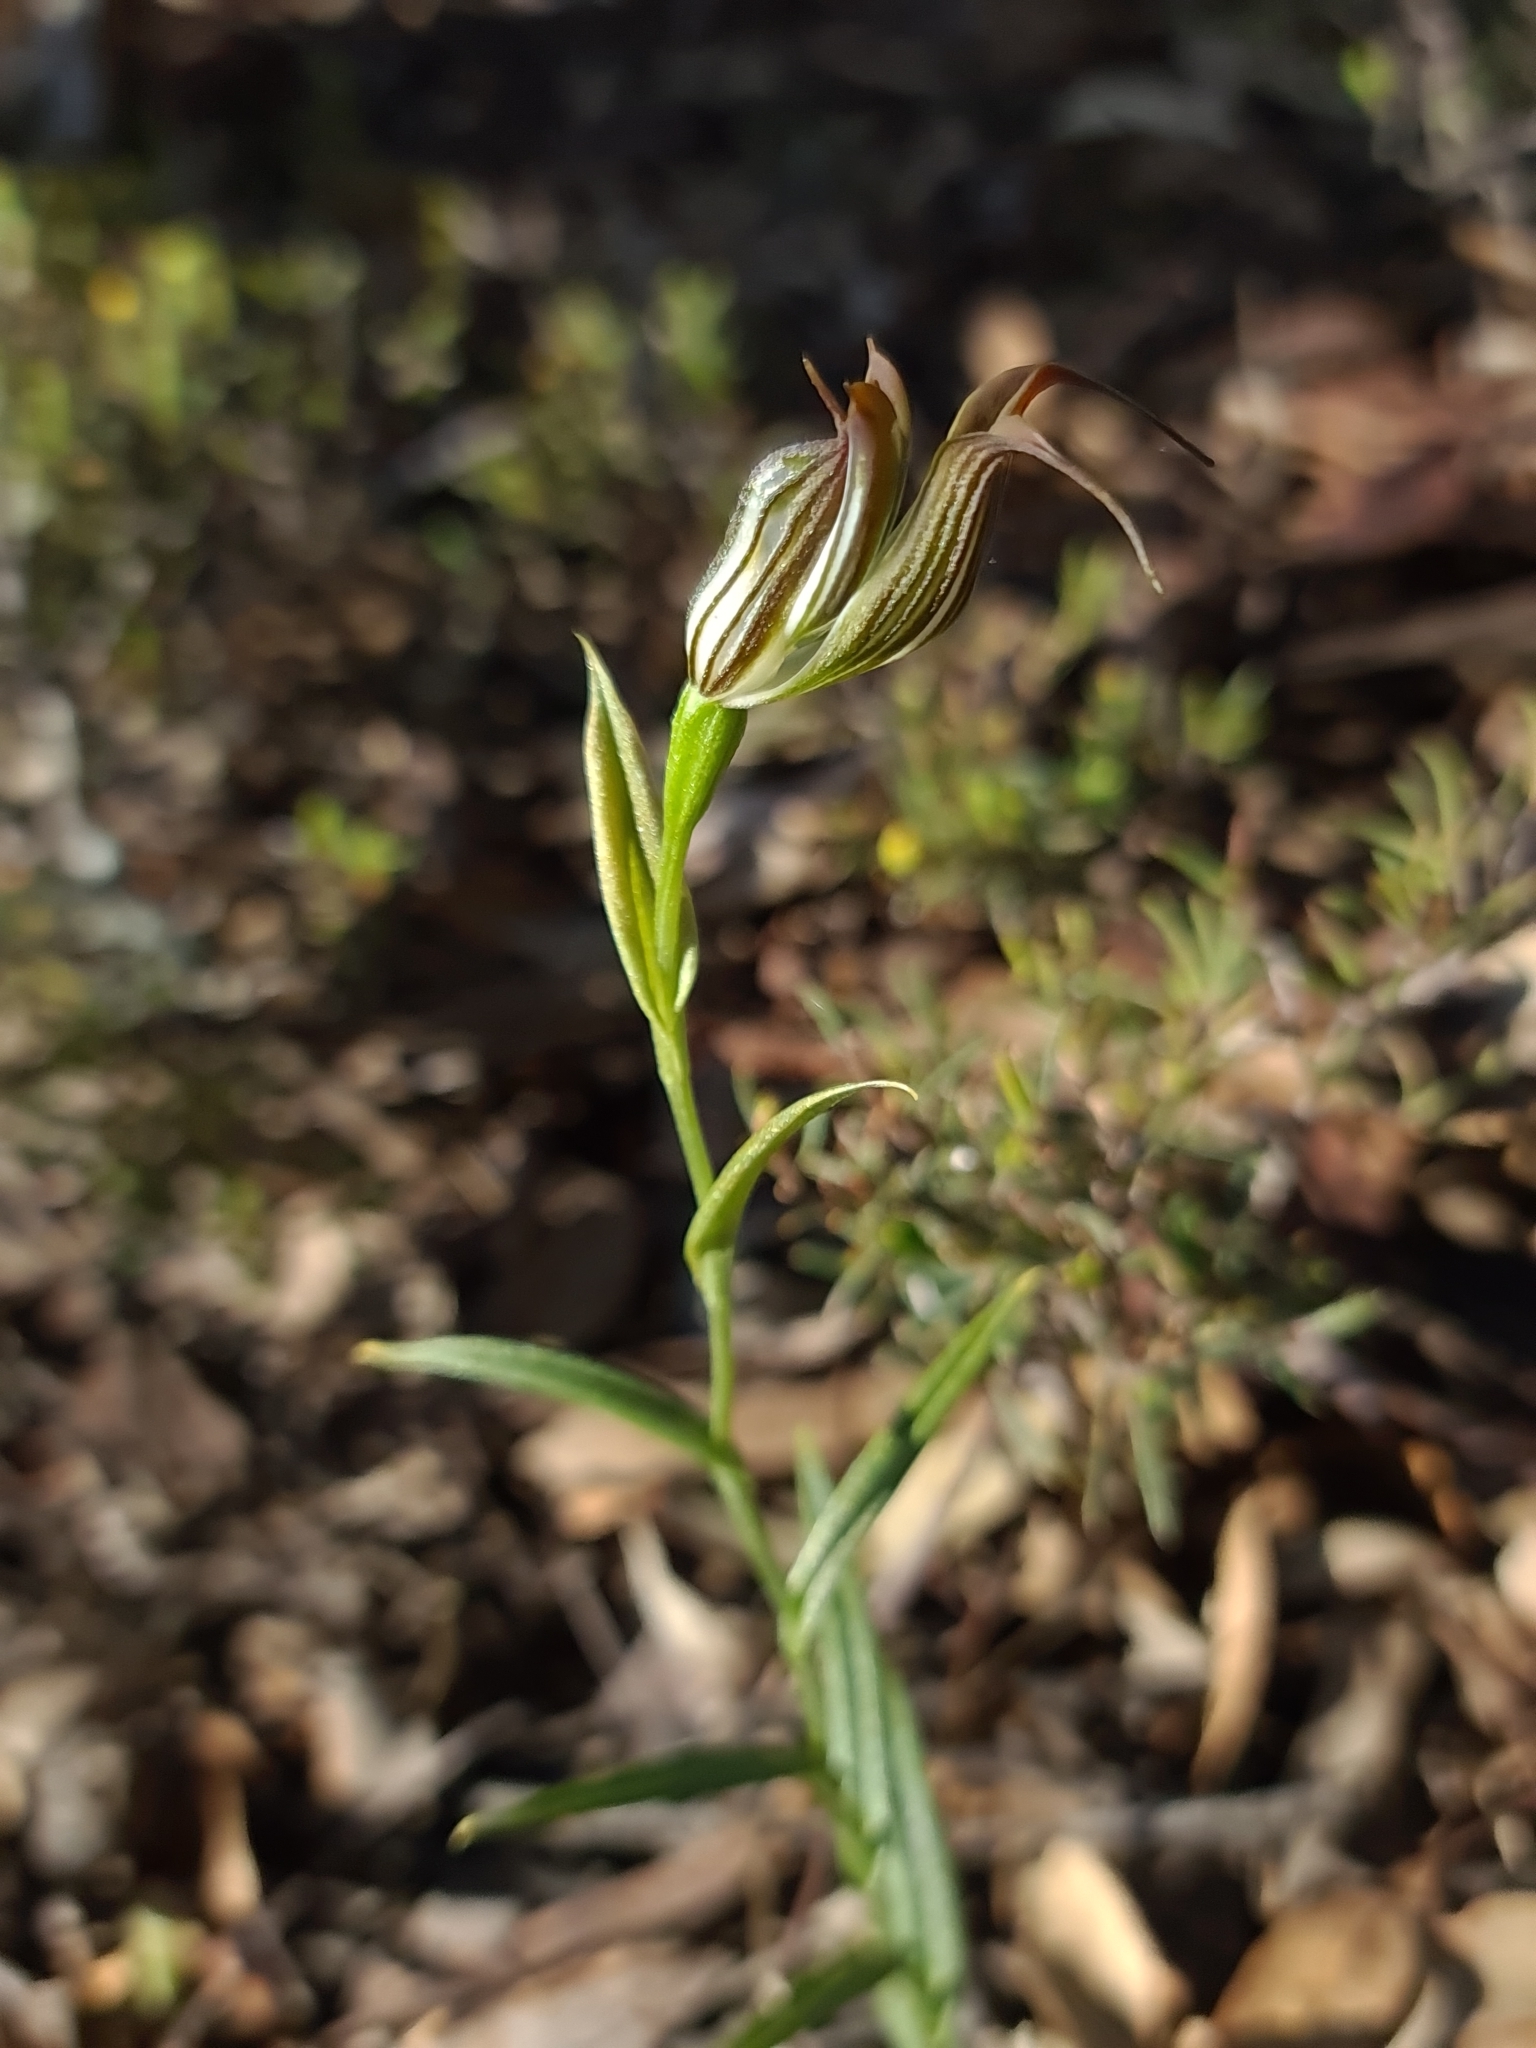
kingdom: Plantae
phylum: Tracheophyta
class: Liliopsida
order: Asparagales
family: Orchidaceae
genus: Pterostylis
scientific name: Pterostylis recurva
